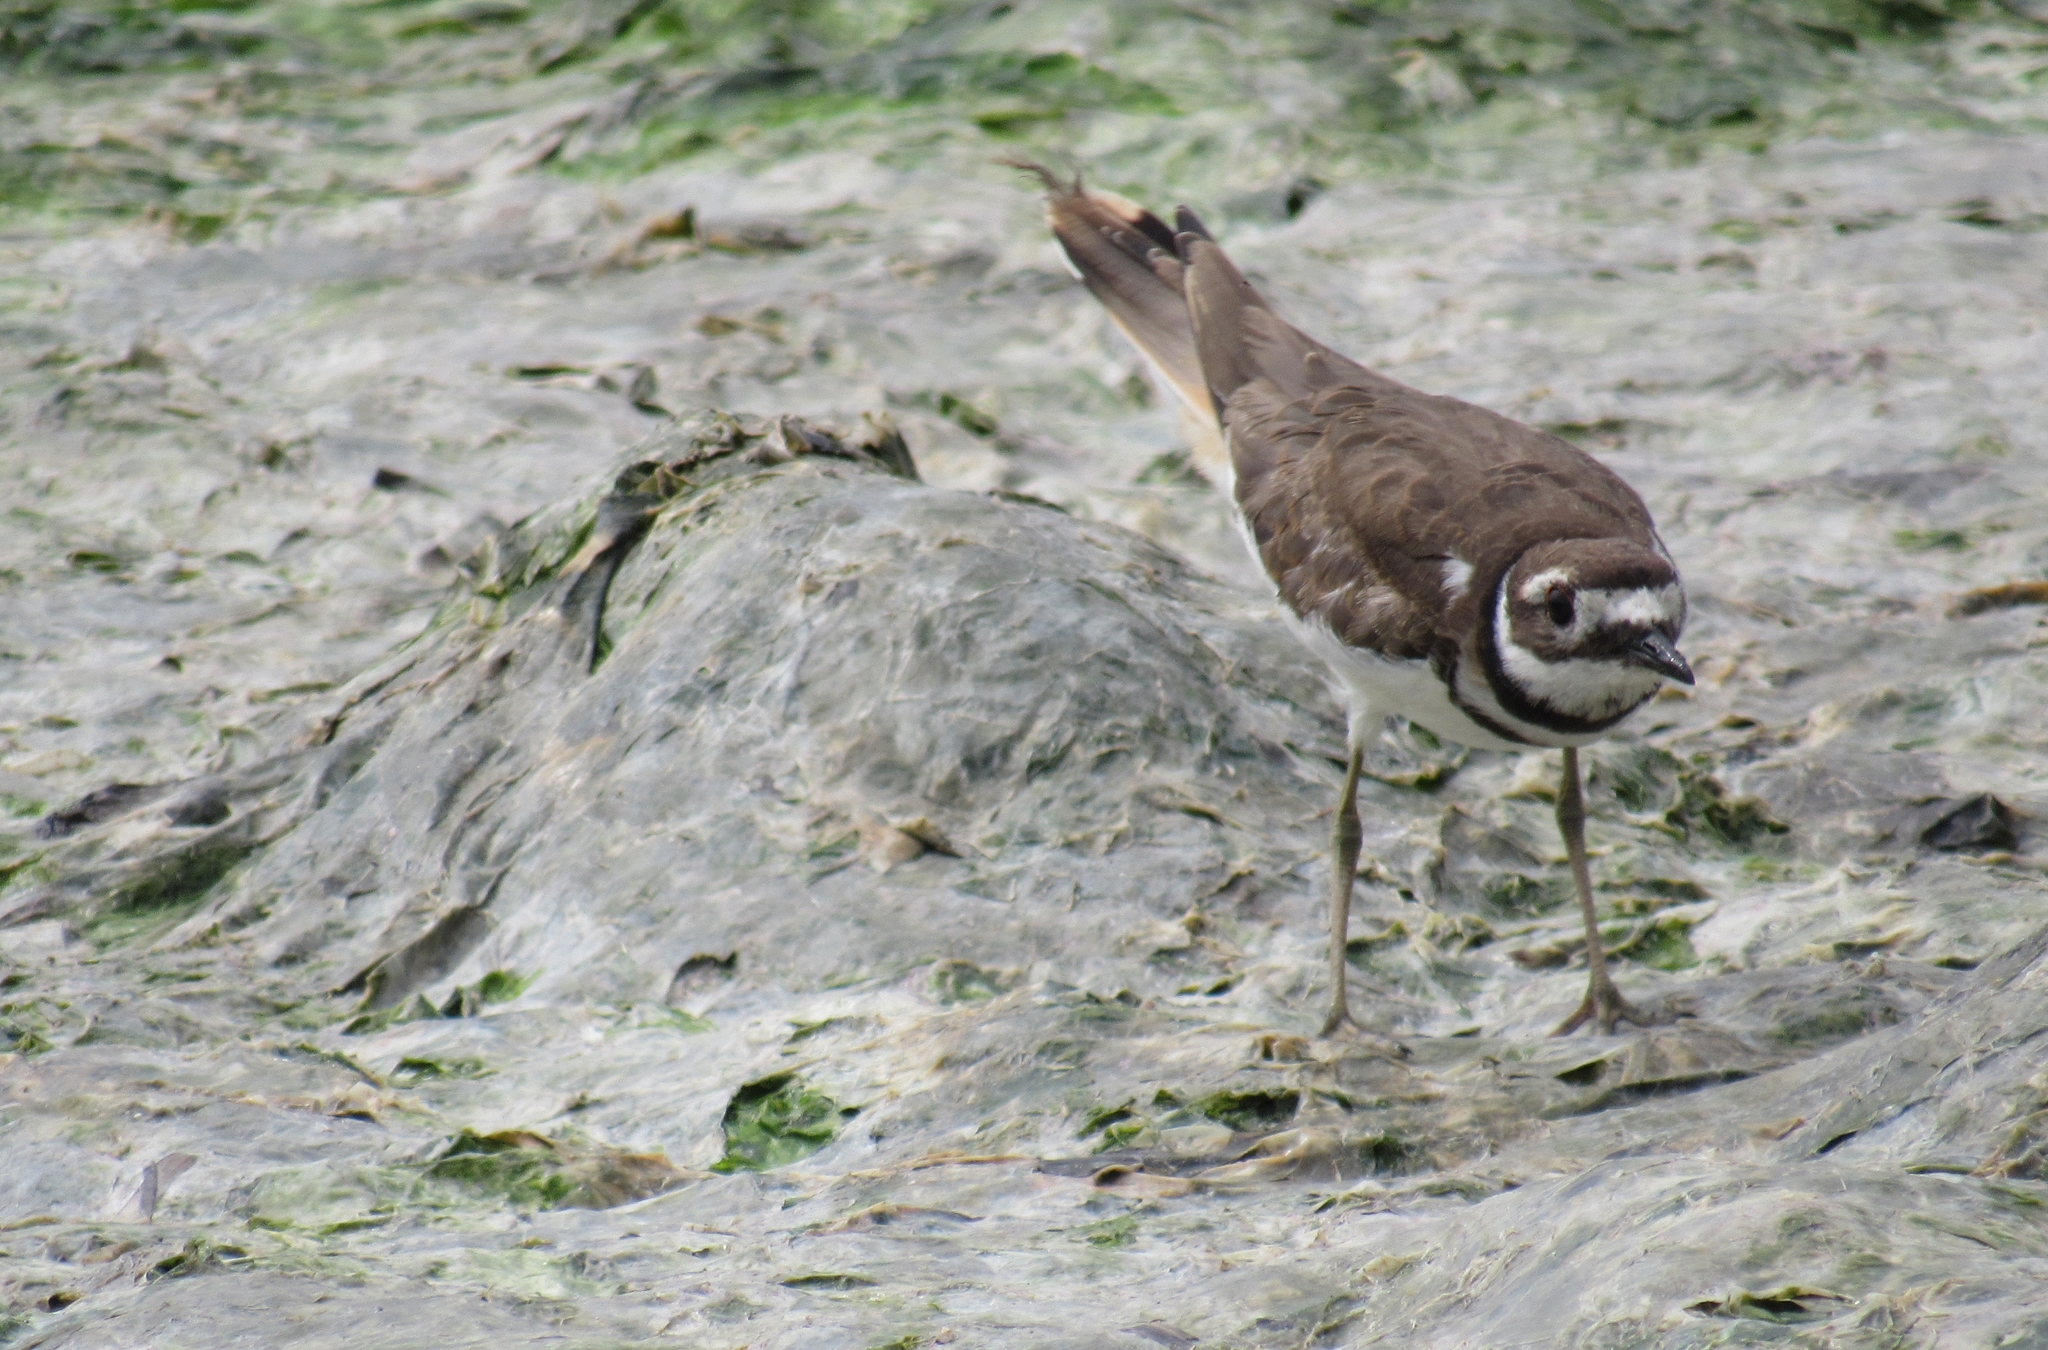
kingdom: Animalia
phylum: Chordata
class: Aves
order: Charadriiformes
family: Charadriidae
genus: Charadrius
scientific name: Charadrius vociferus
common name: Killdeer
